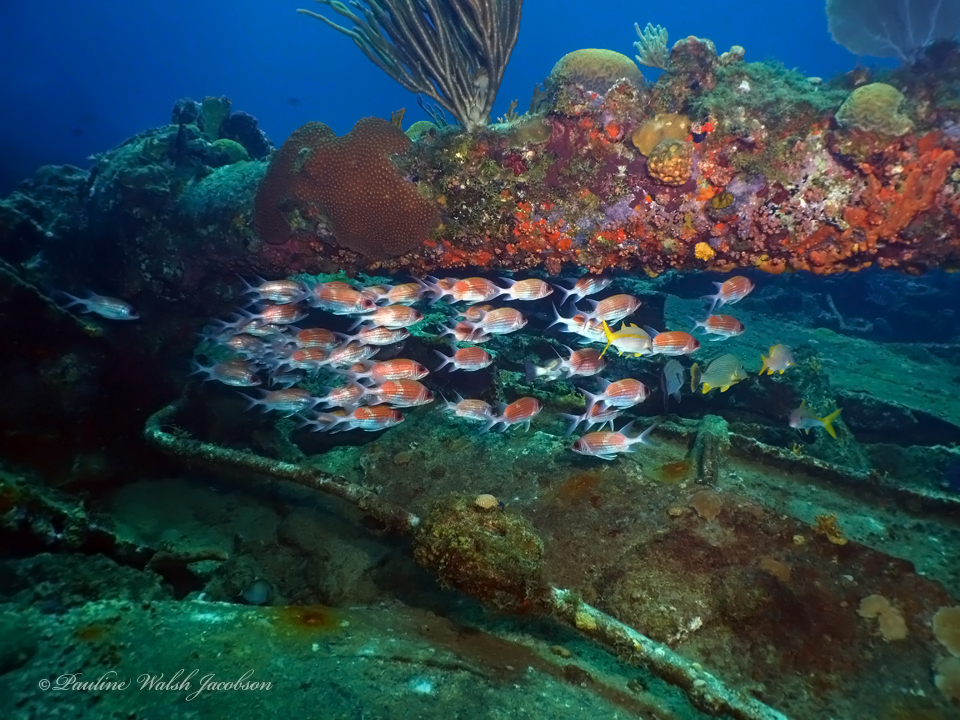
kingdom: Animalia
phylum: Chordata
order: Beryciformes
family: Holocentridae
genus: Holocentrus
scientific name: Holocentrus adscensionis
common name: Squirrelfish
